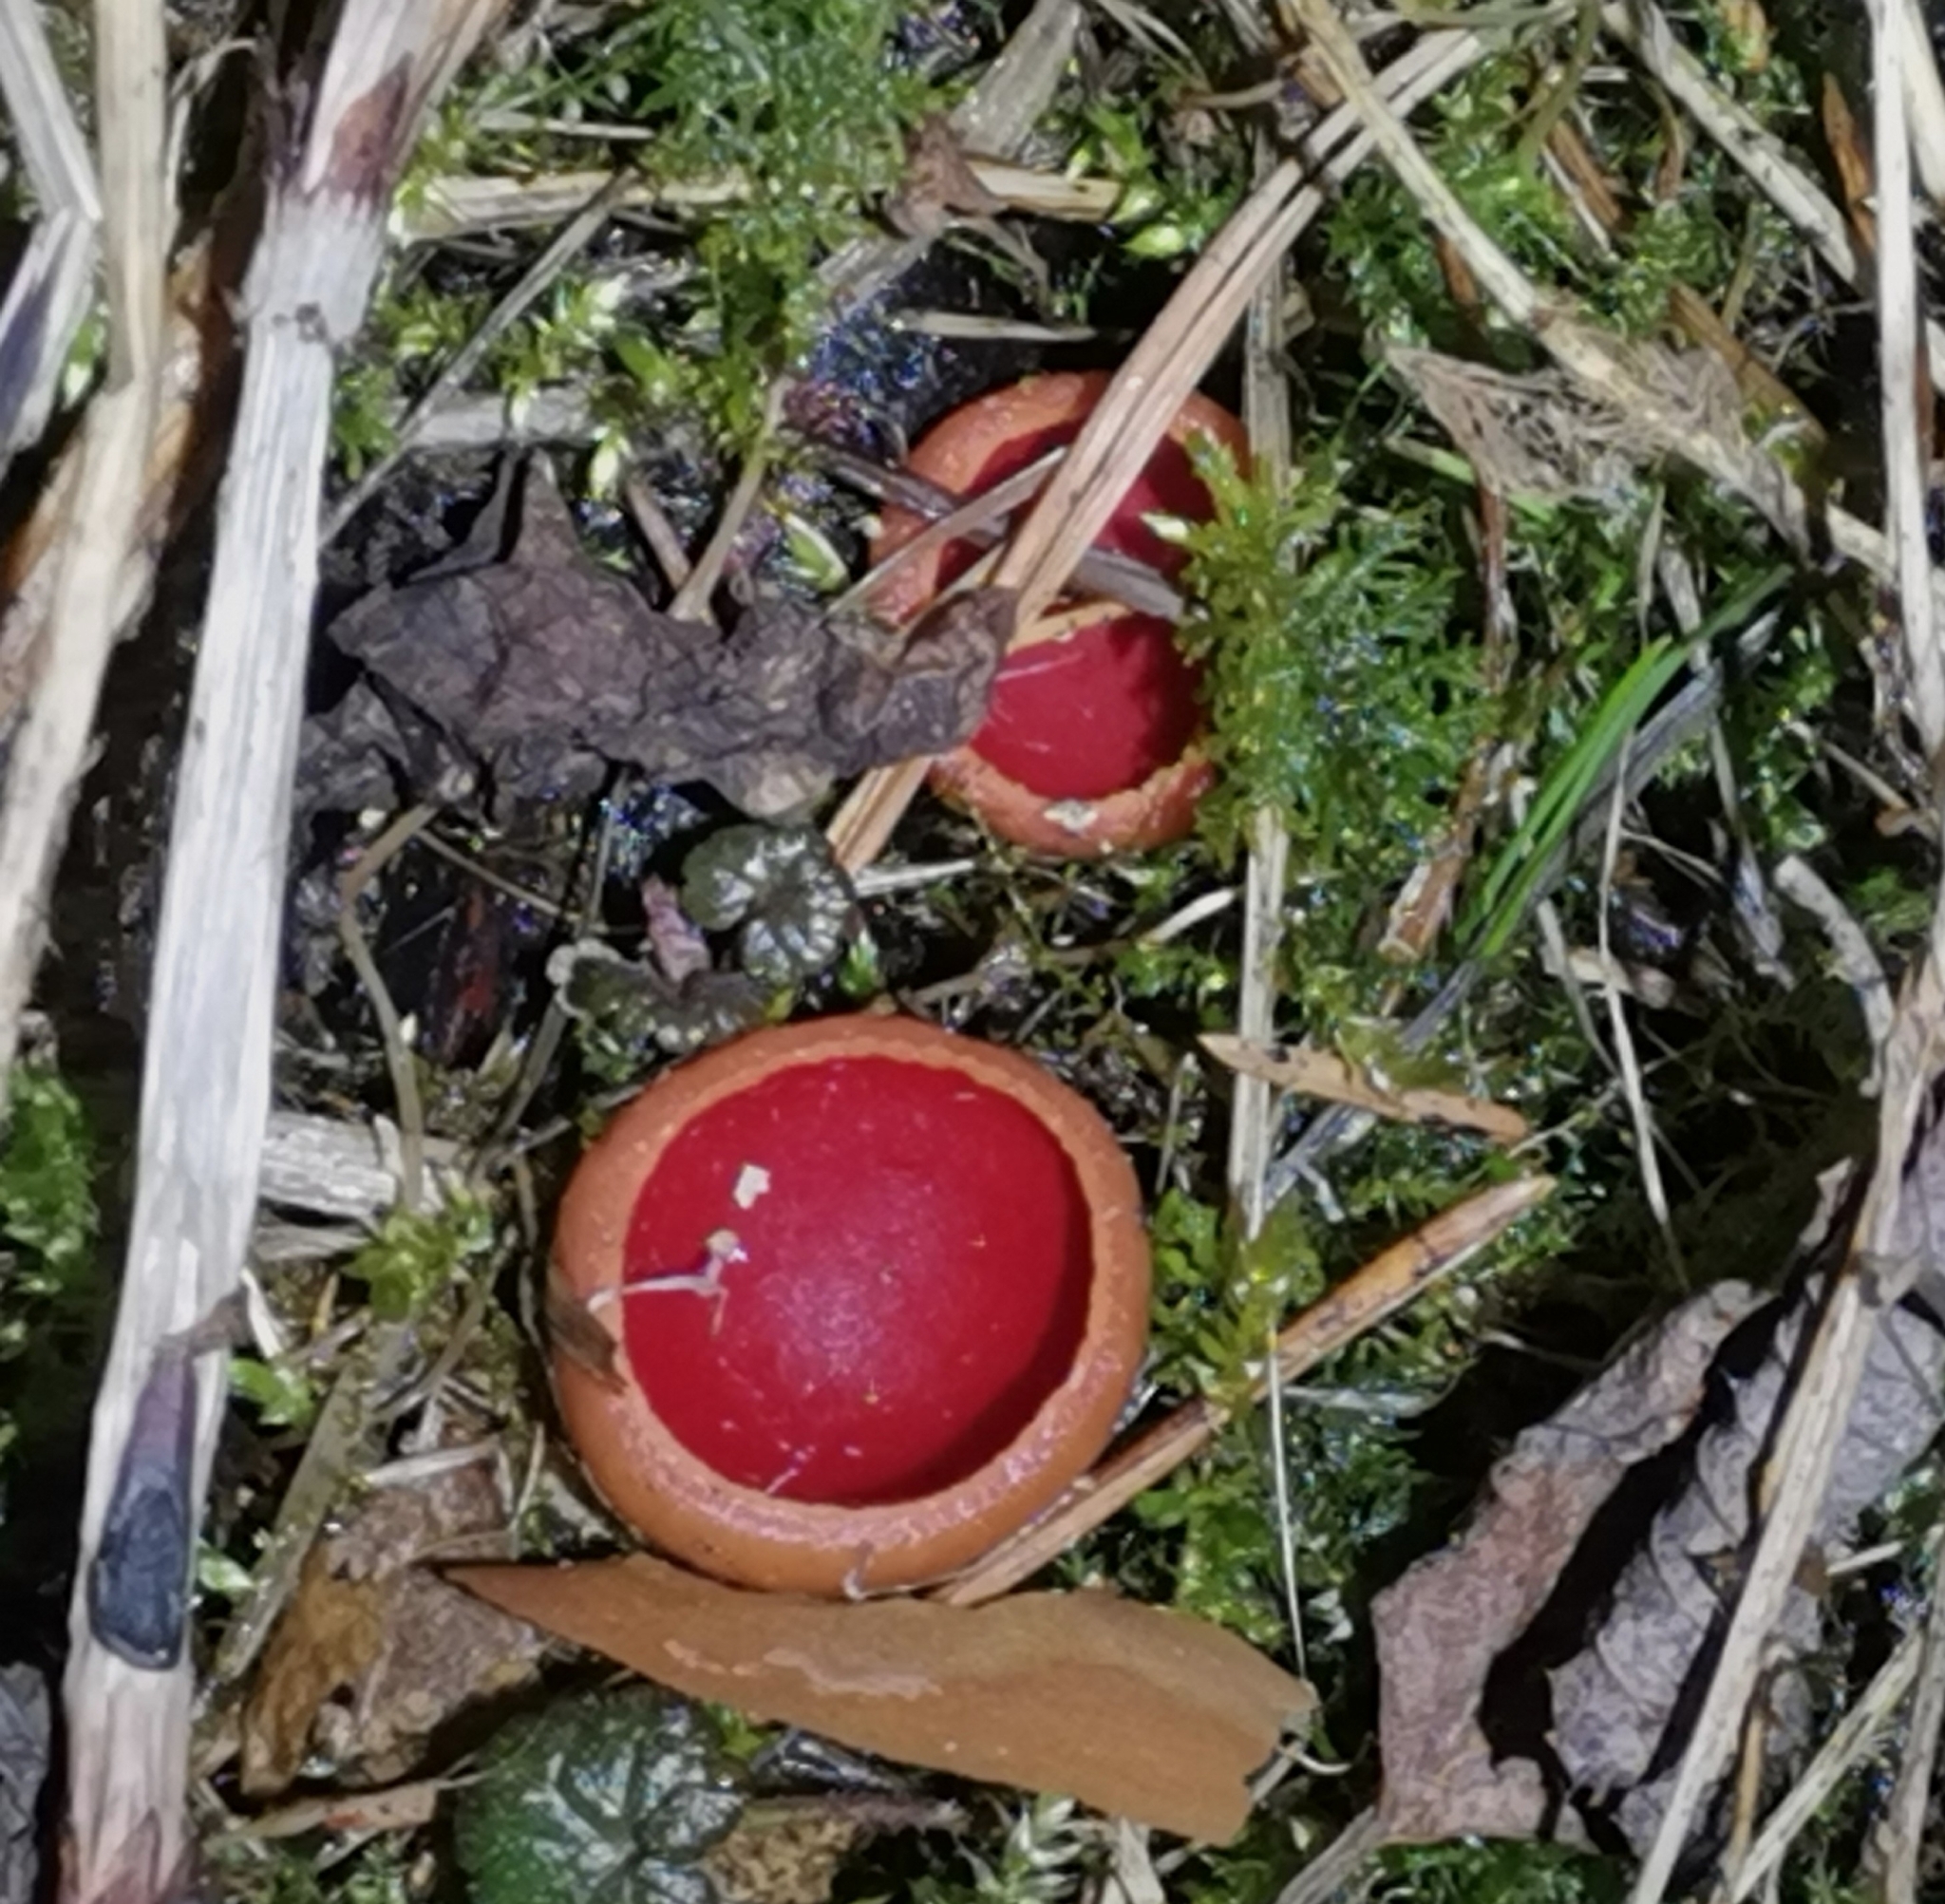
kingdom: Fungi
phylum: Ascomycota
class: Pezizomycetes
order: Pezizales
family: Sarcoscyphaceae
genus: Sarcoscypha
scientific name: Sarcoscypha austriaca
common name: Scarlet elfcup
